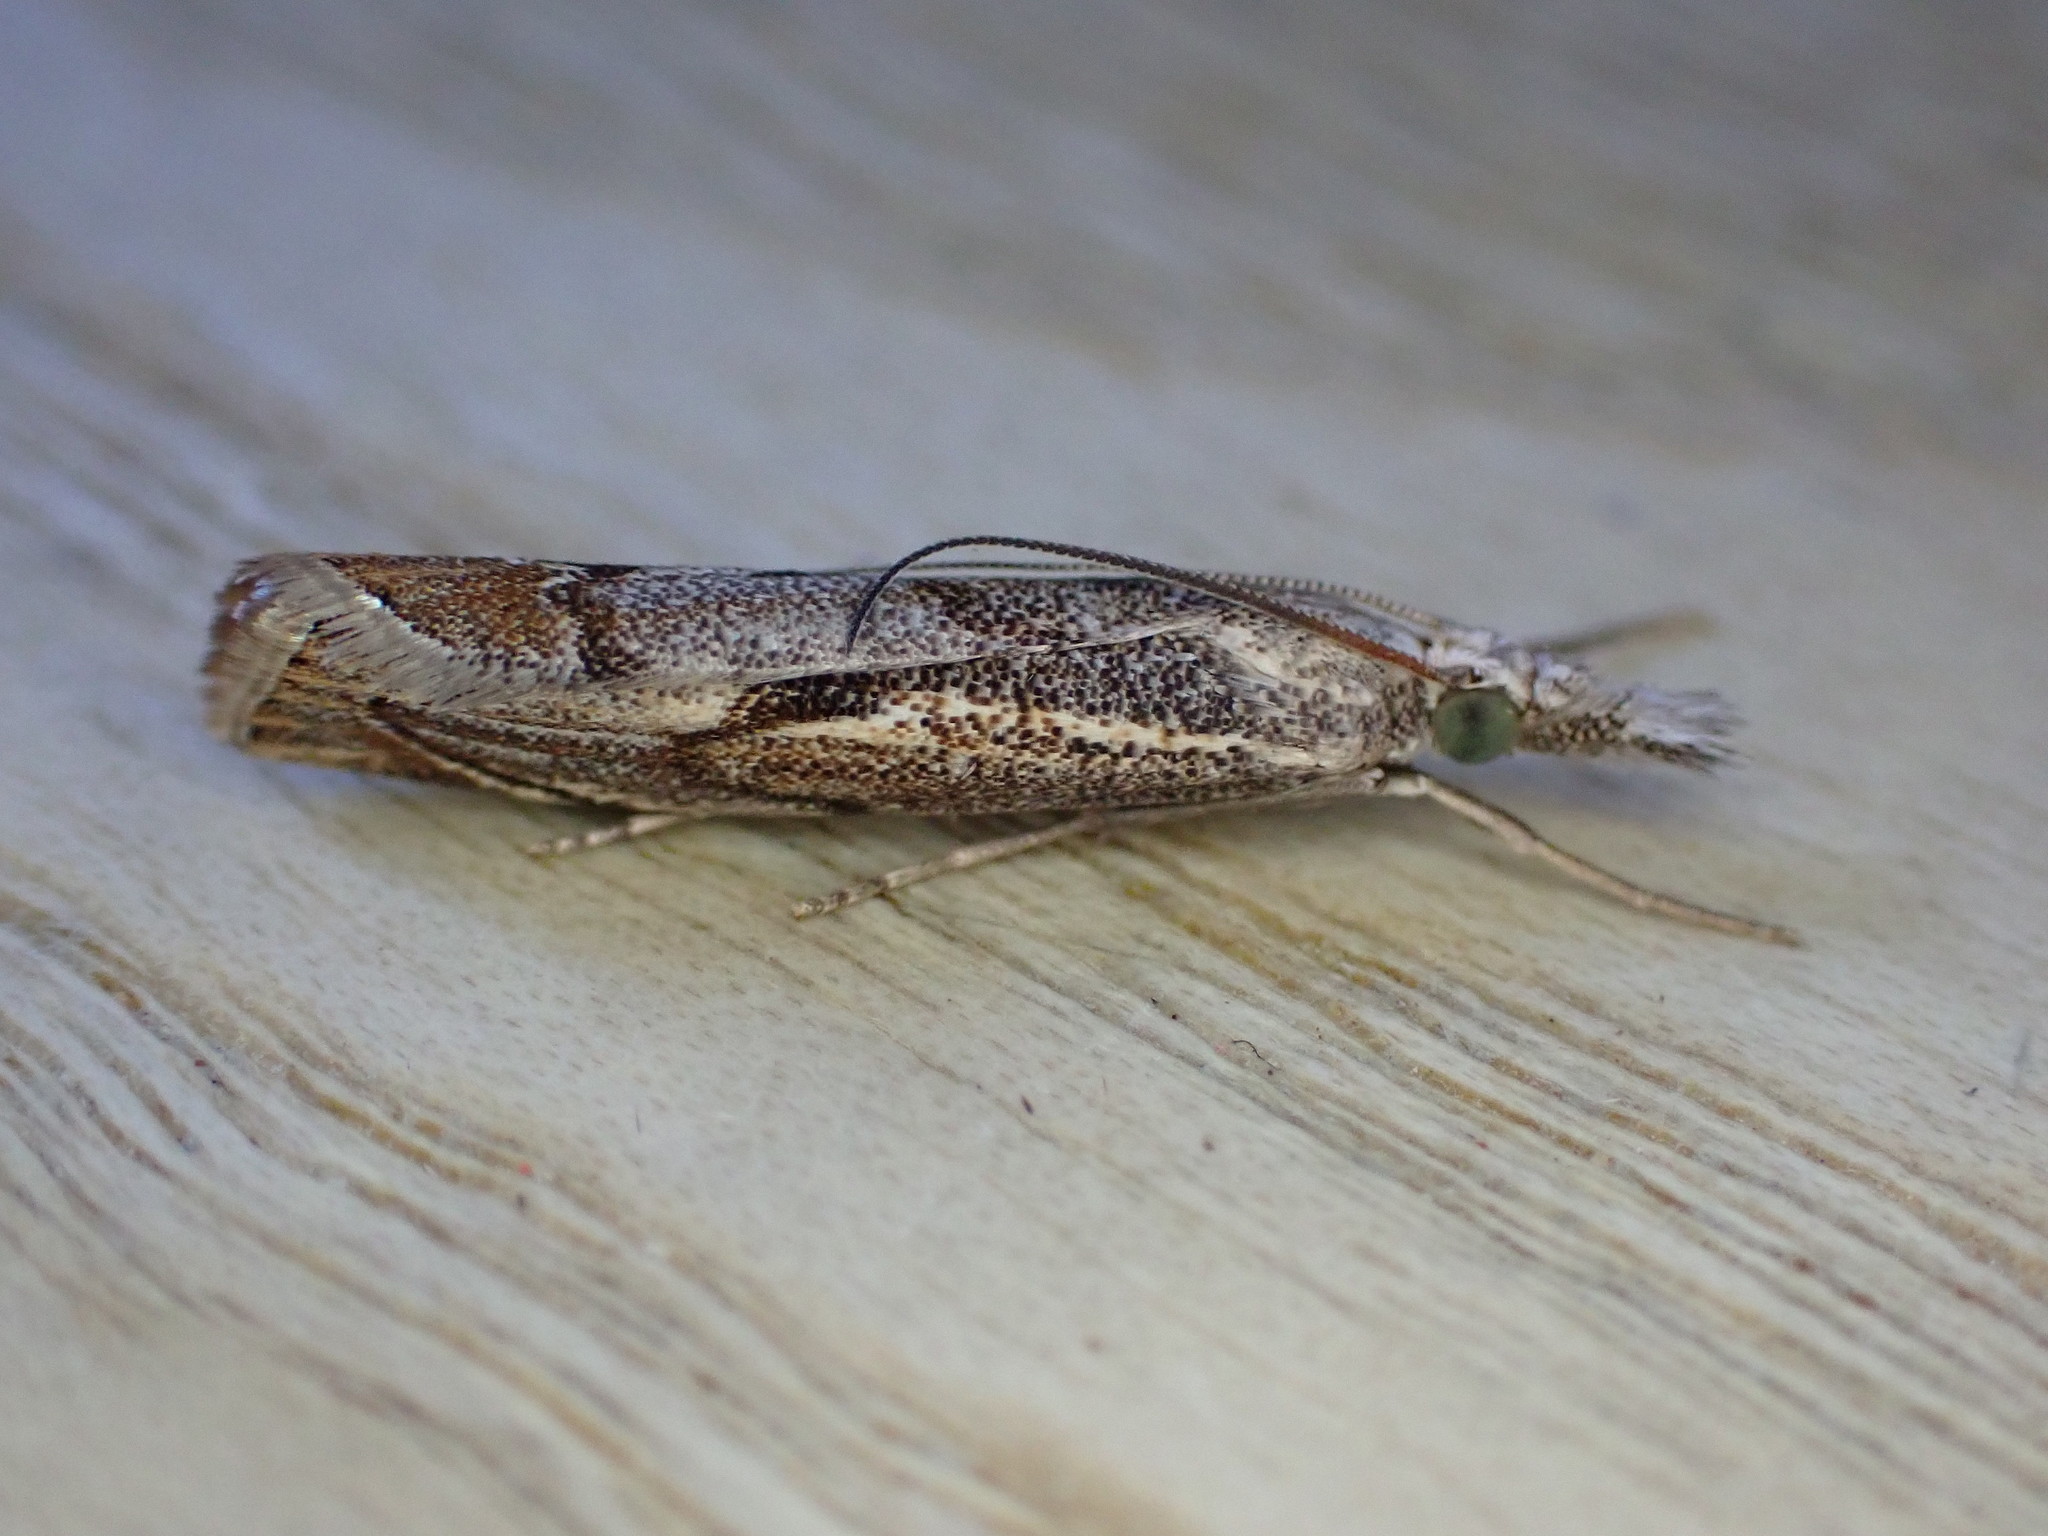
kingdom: Animalia
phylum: Arthropoda
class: Insecta
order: Lepidoptera
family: Crambidae
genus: Agriphila
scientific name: Agriphila geniculea
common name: Elbow-stripe grass-veneer
